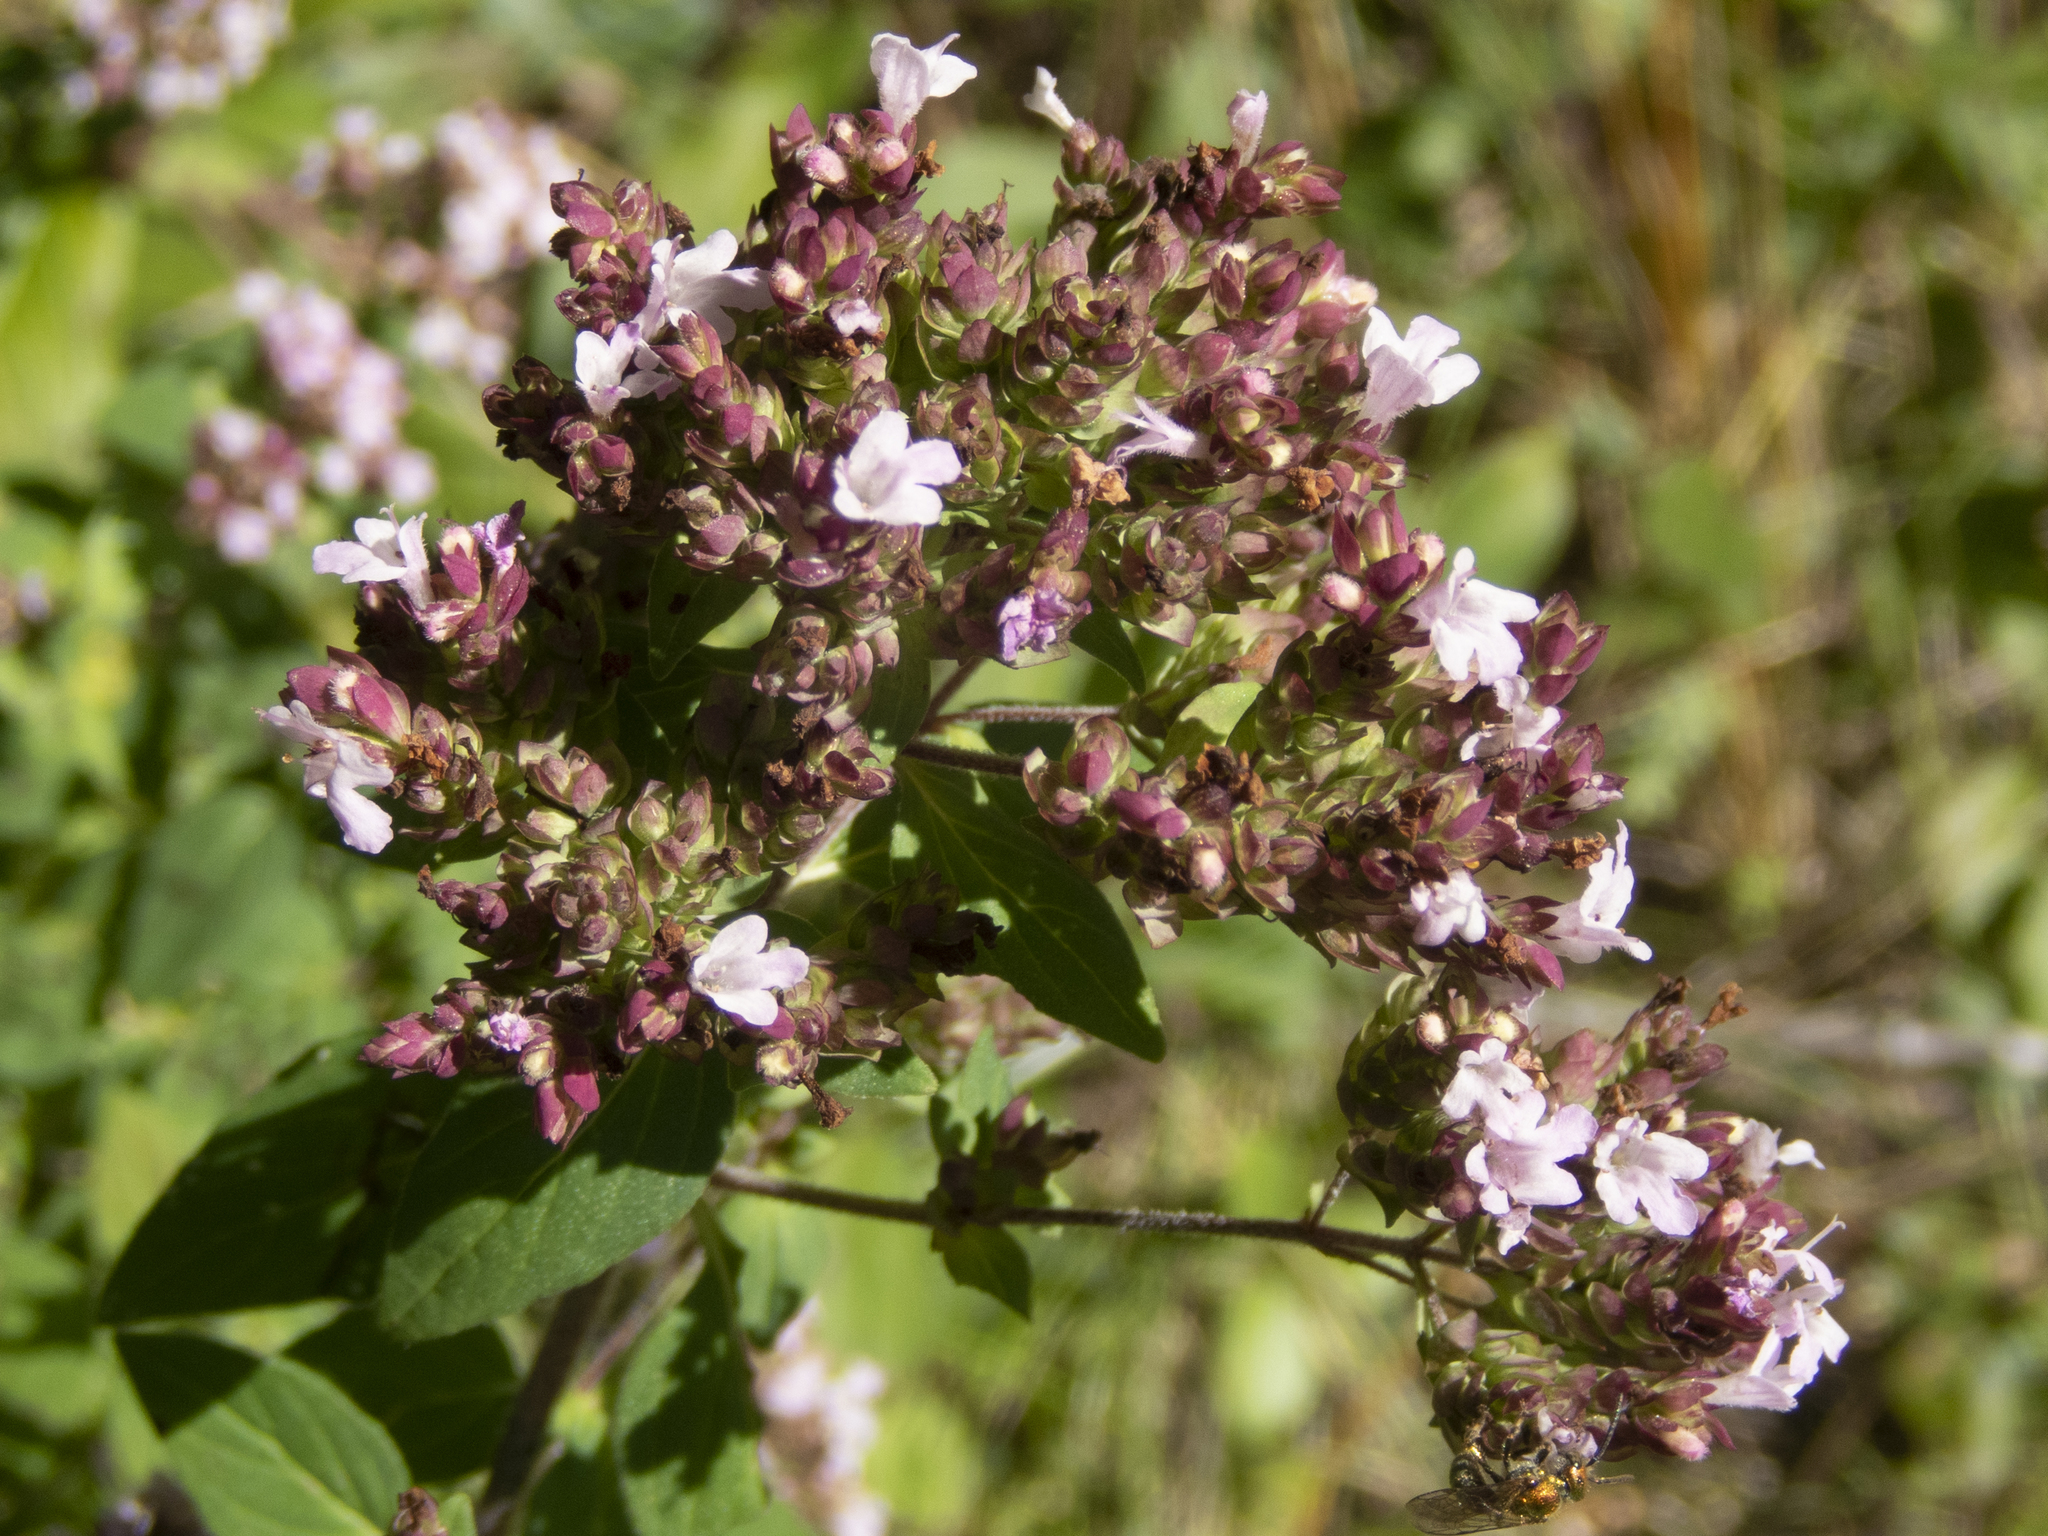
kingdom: Plantae
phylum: Tracheophyta
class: Magnoliopsida
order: Lamiales
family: Lamiaceae
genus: Origanum
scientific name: Origanum vulgare
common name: Wild marjoram
